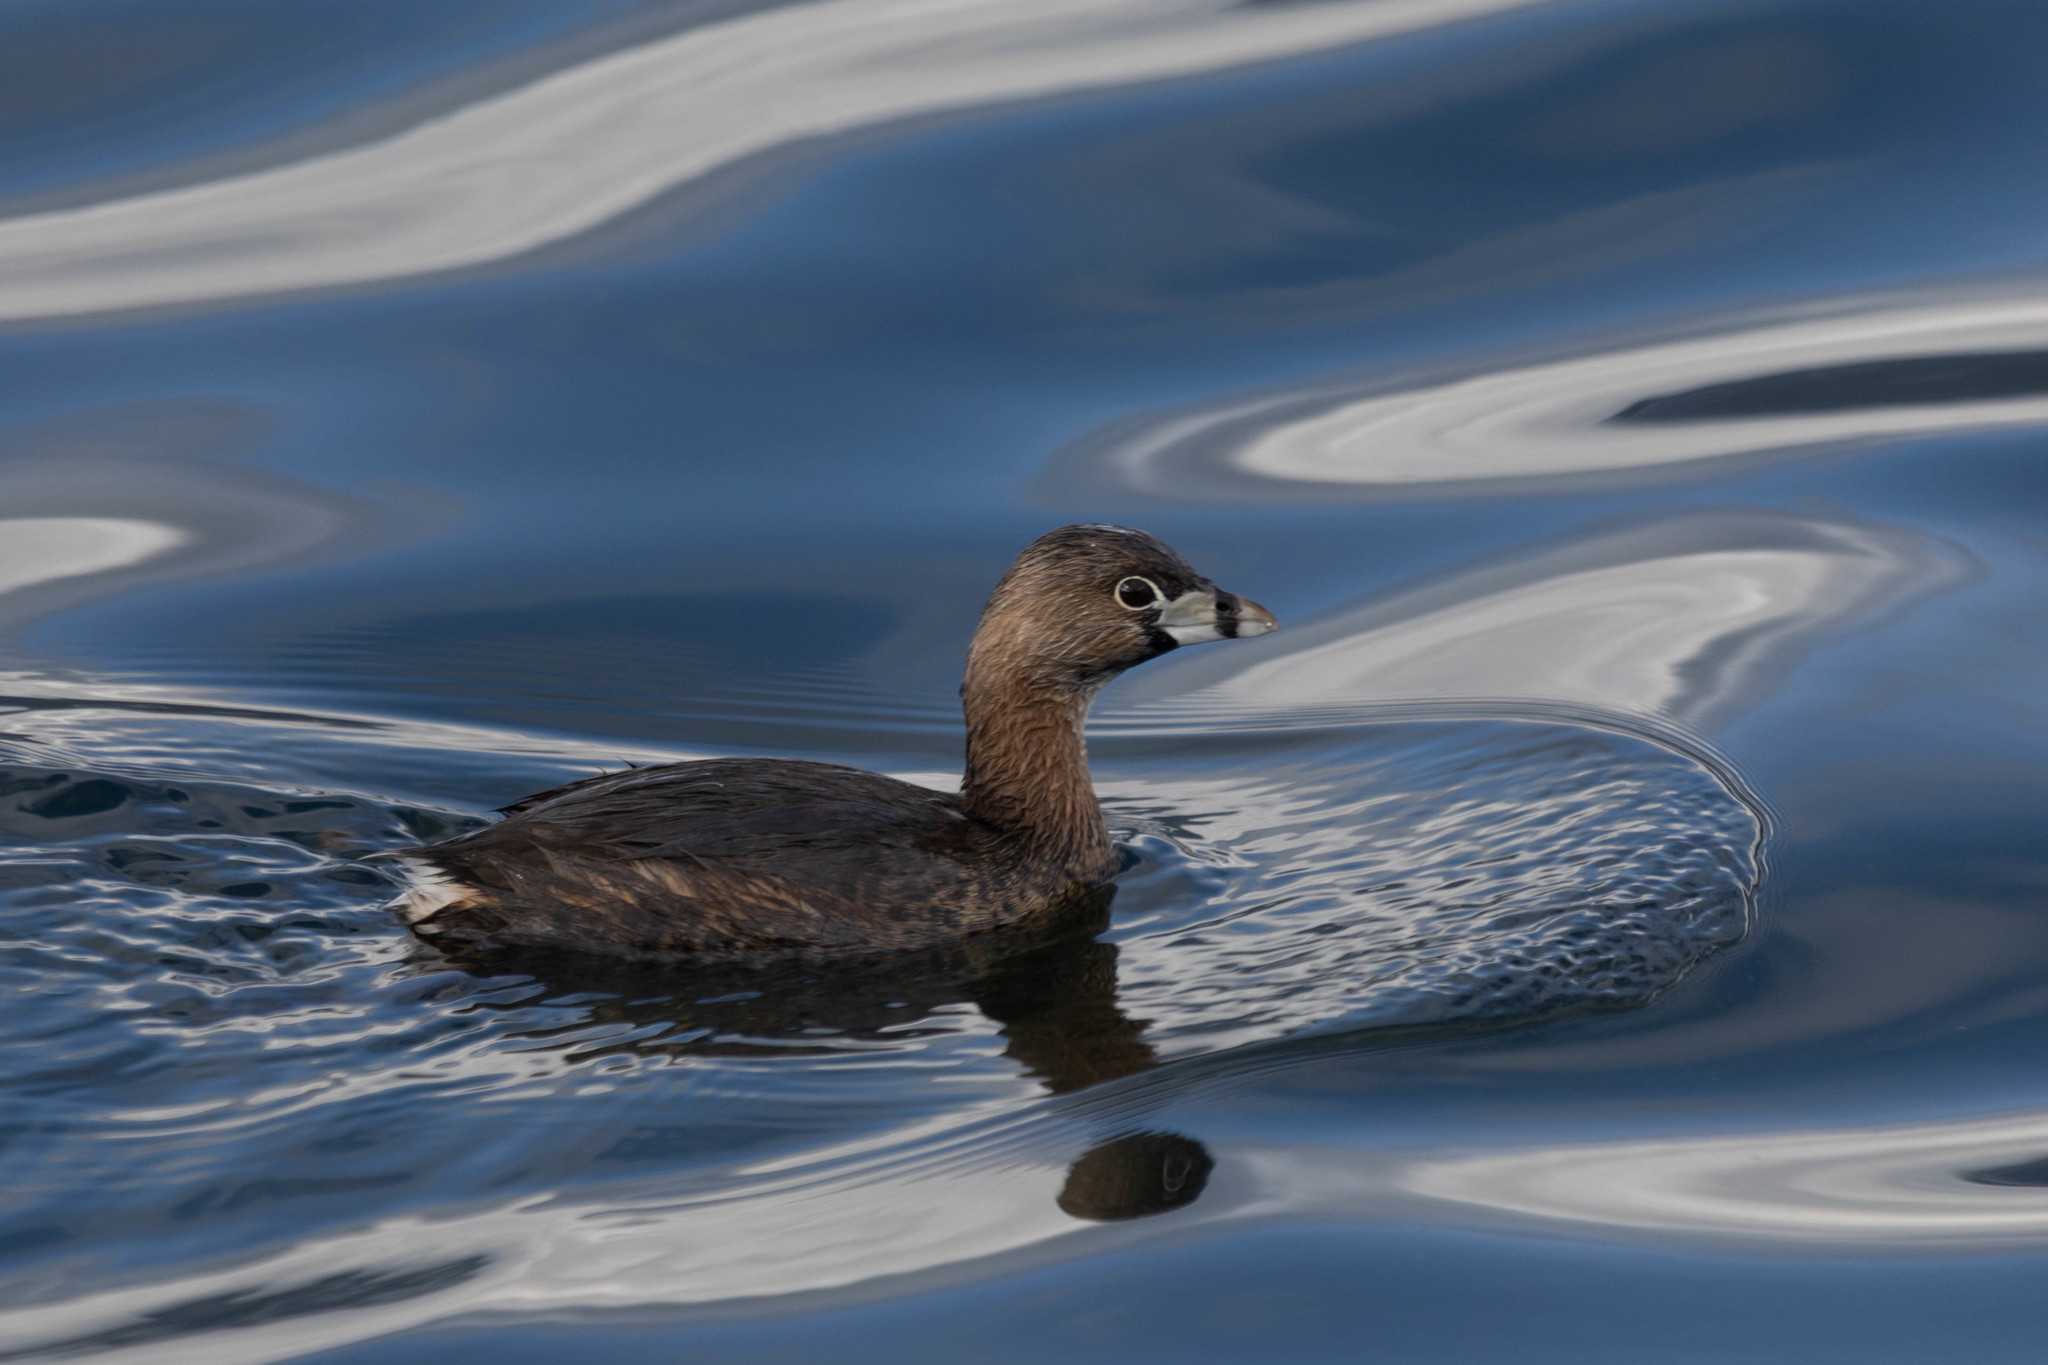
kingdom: Animalia
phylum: Chordata
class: Aves
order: Podicipediformes
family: Podicipedidae
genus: Podilymbus
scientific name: Podilymbus podiceps
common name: Pied-billed grebe
